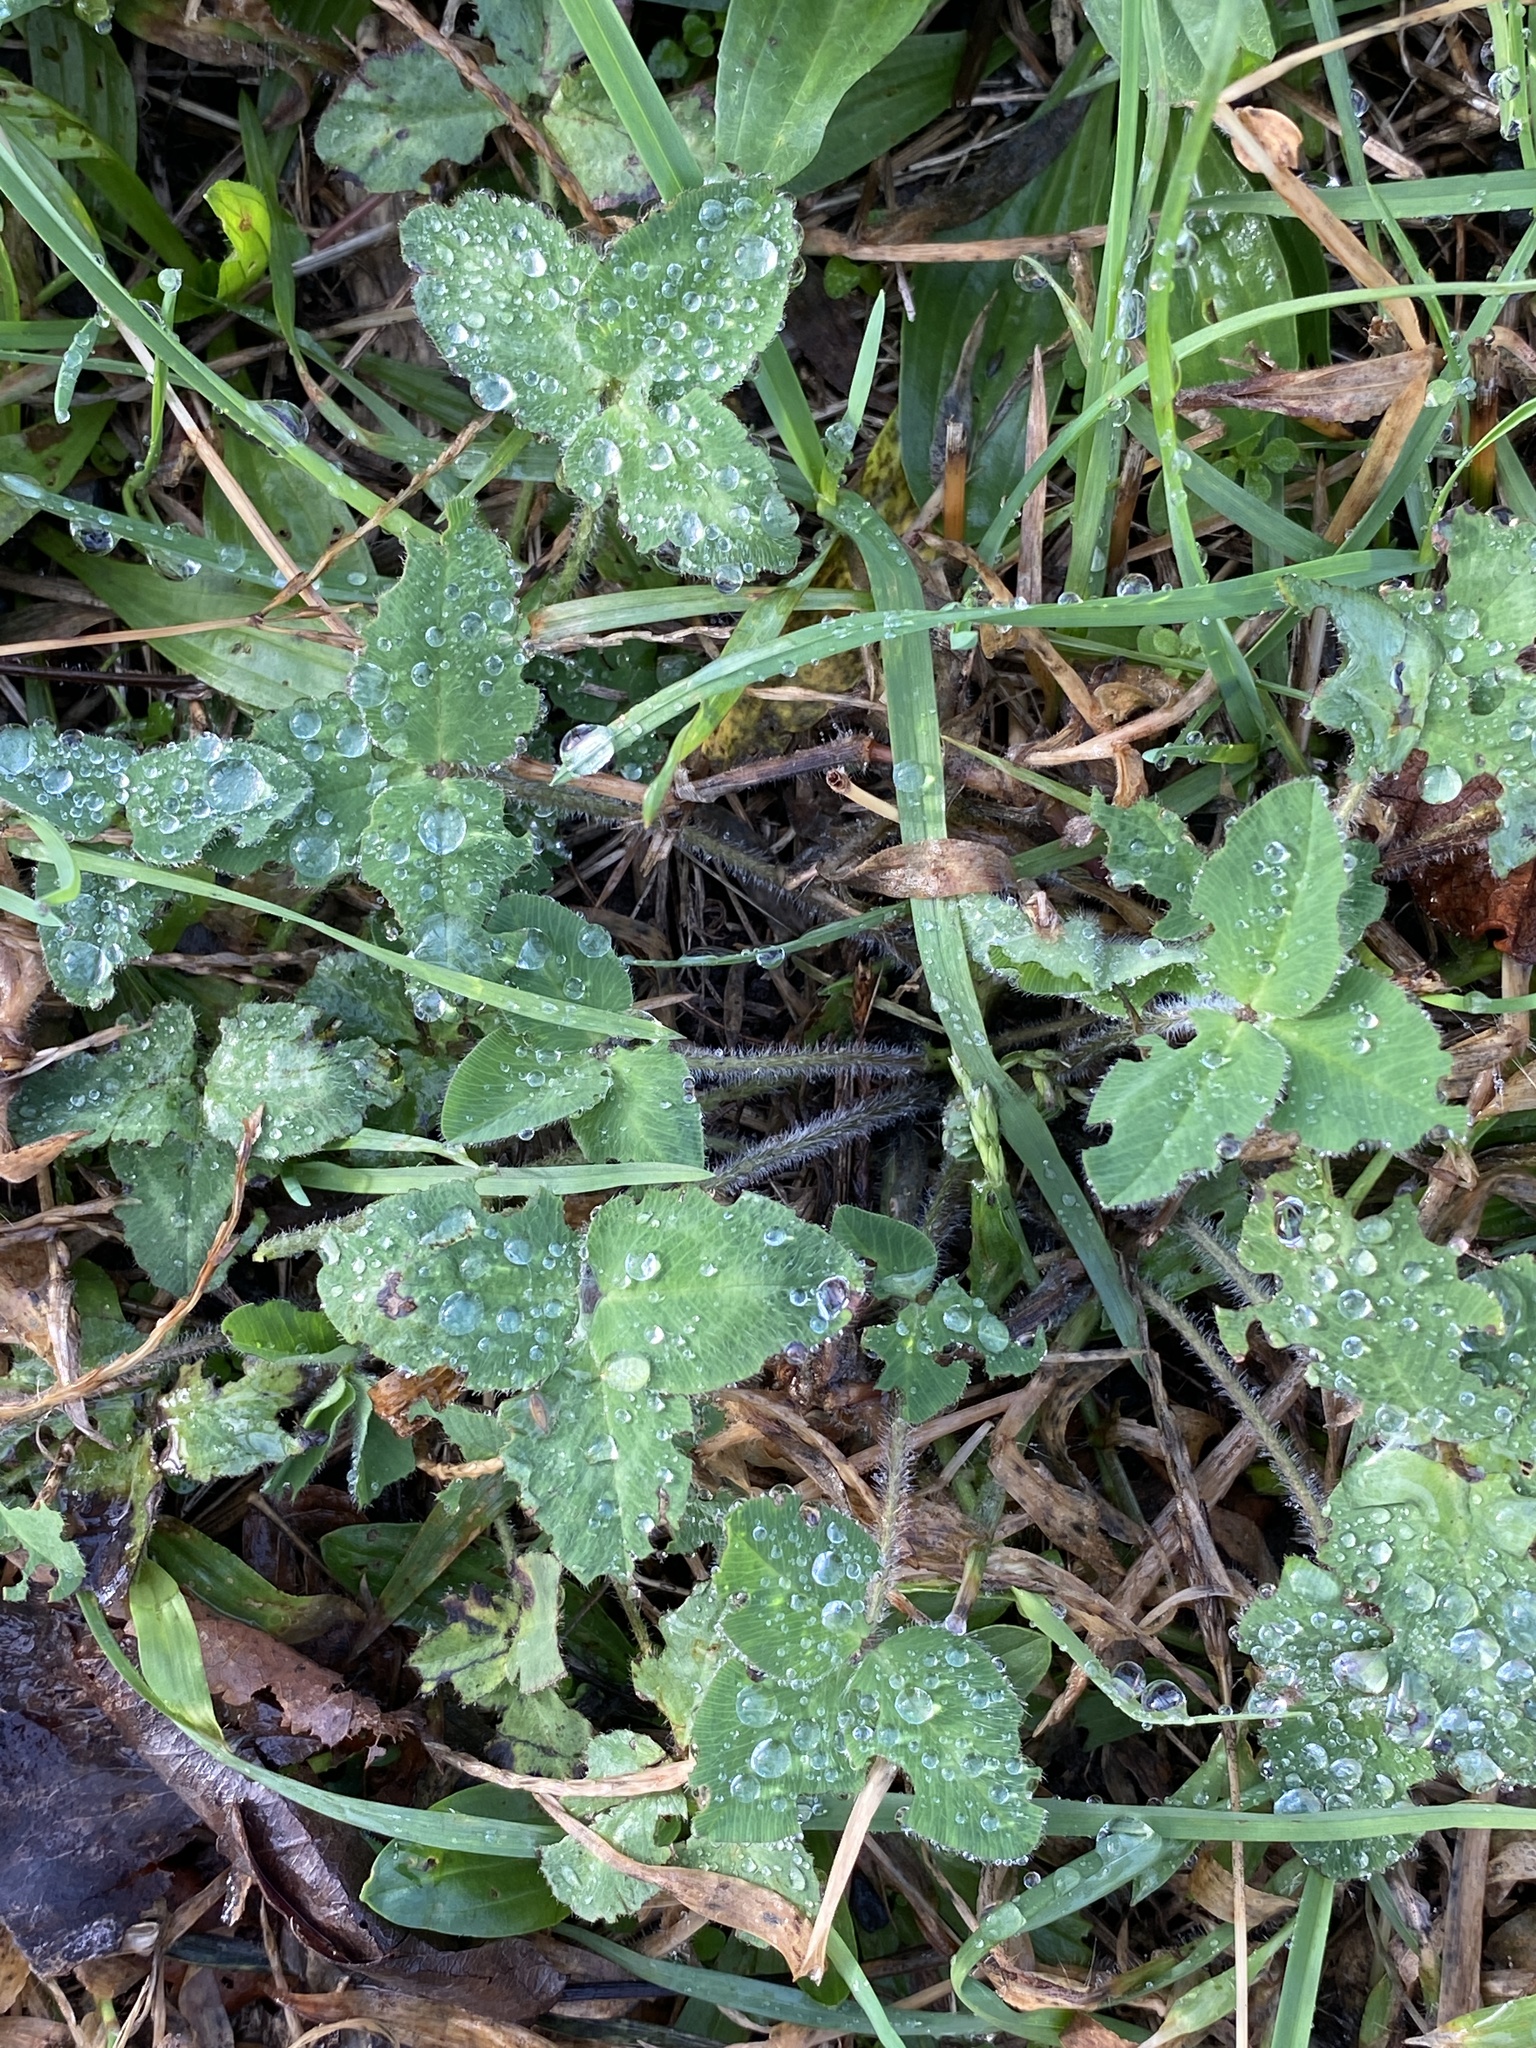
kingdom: Plantae
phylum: Tracheophyta
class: Magnoliopsida
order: Fabales
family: Fabaceae
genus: Trifolium
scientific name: Trifolium pratense
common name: Red clover
